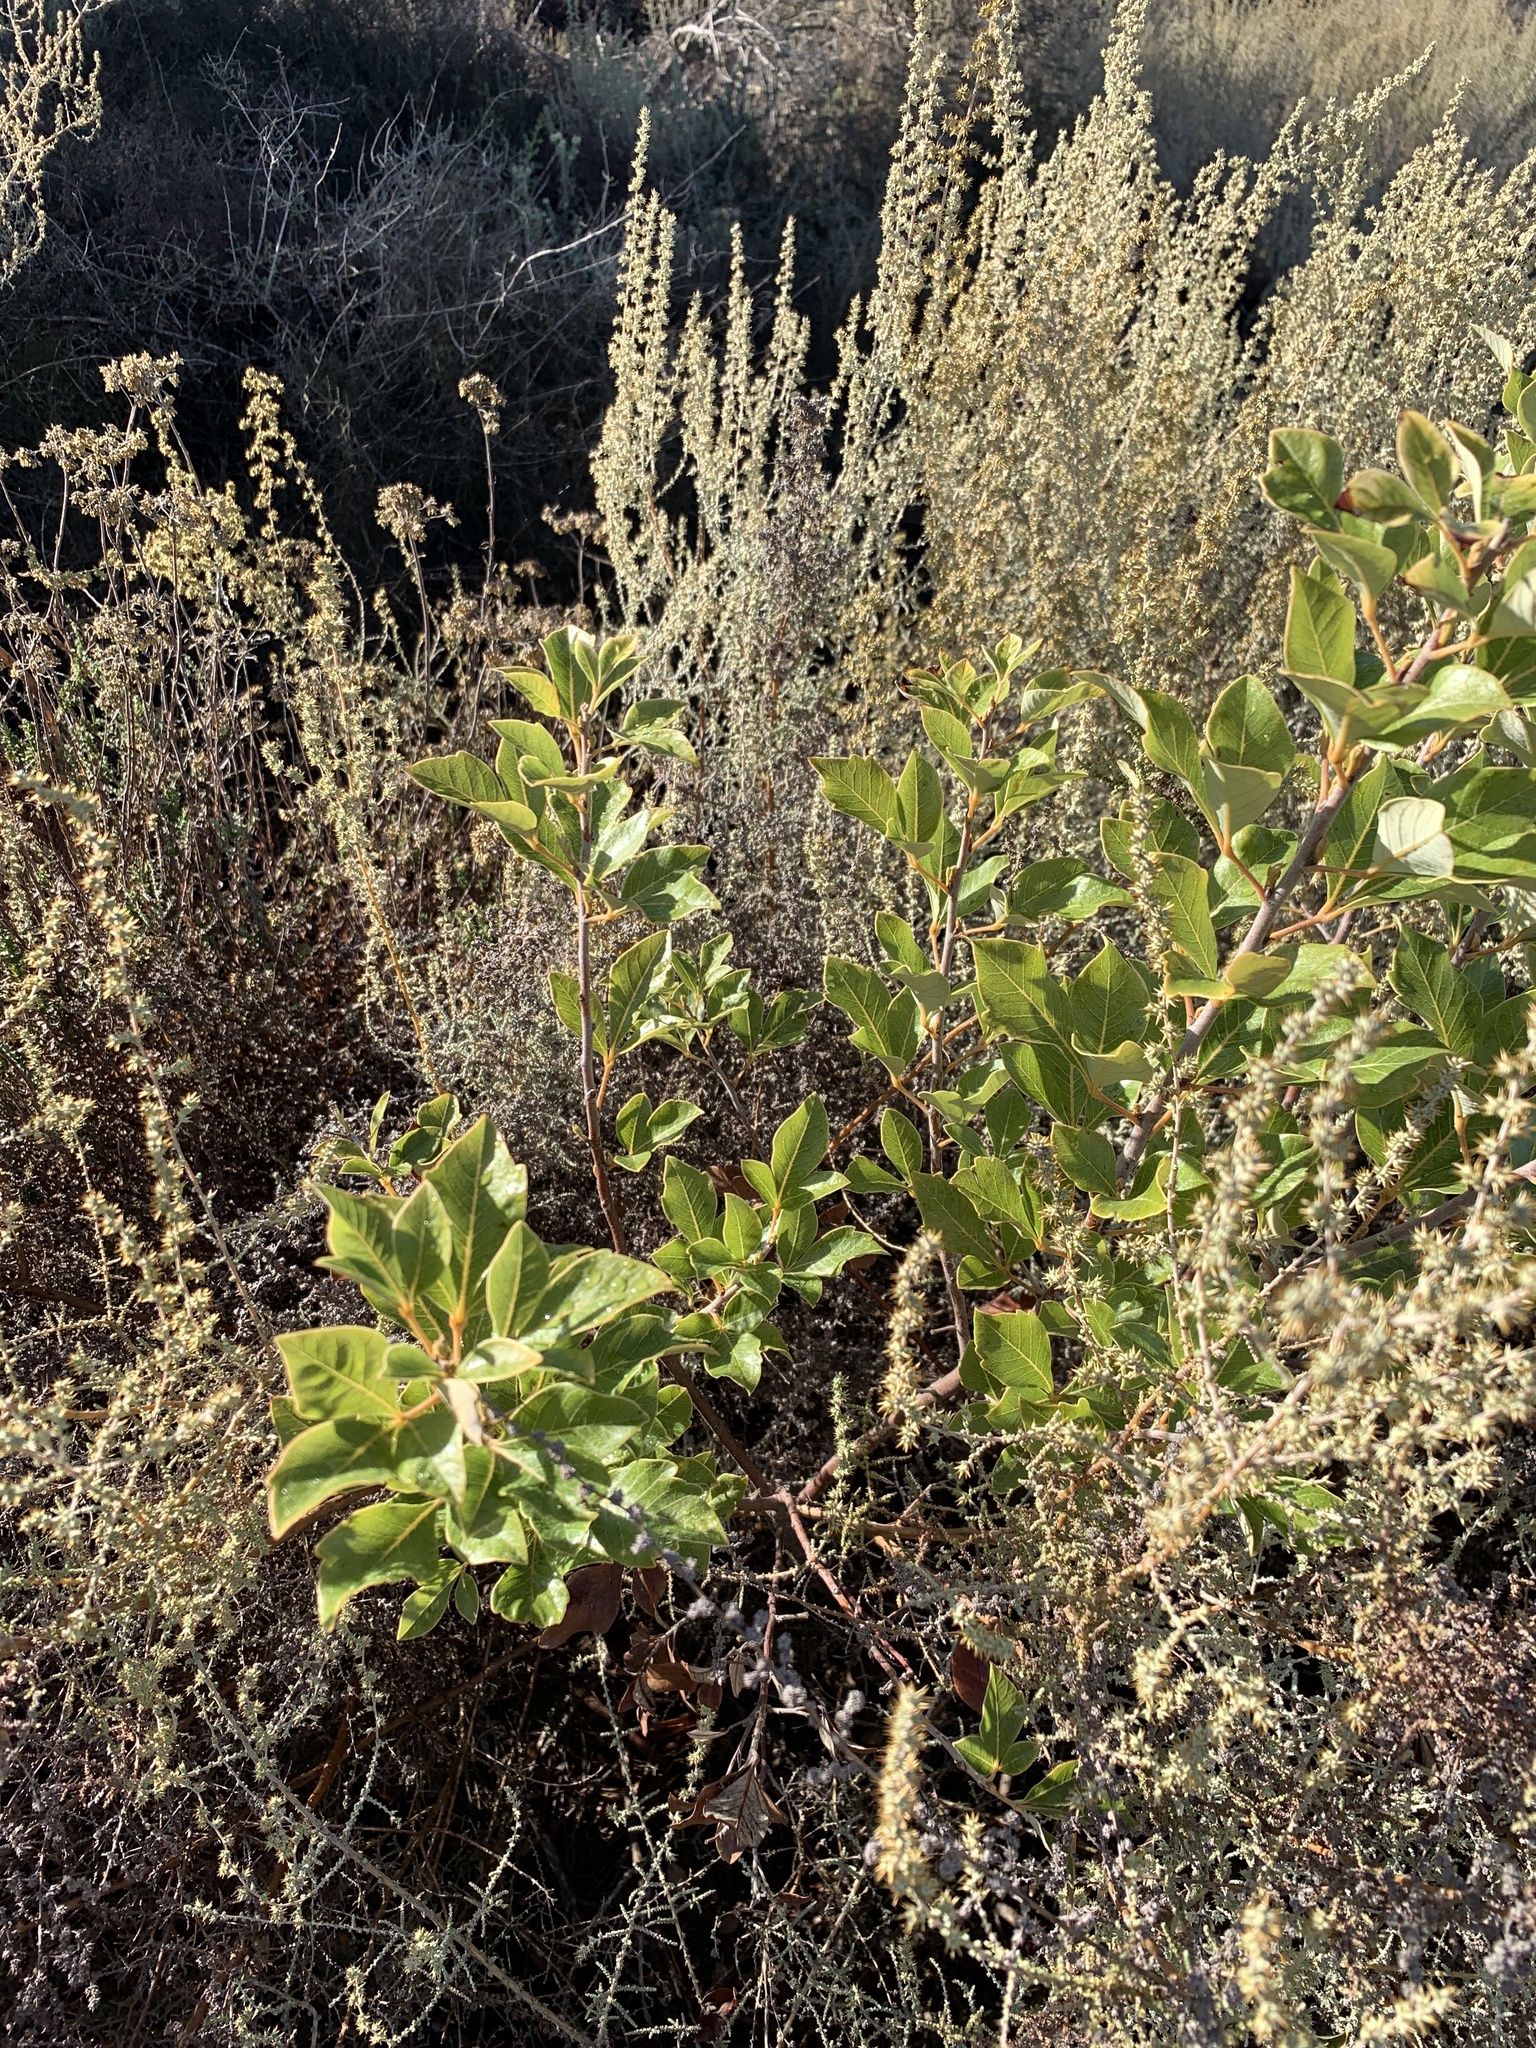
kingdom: Plantae
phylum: Tracheophyta
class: Magnoliopsida
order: Sapindales
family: Anacardiaceae
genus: Searsia
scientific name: Searsia tomentosa
